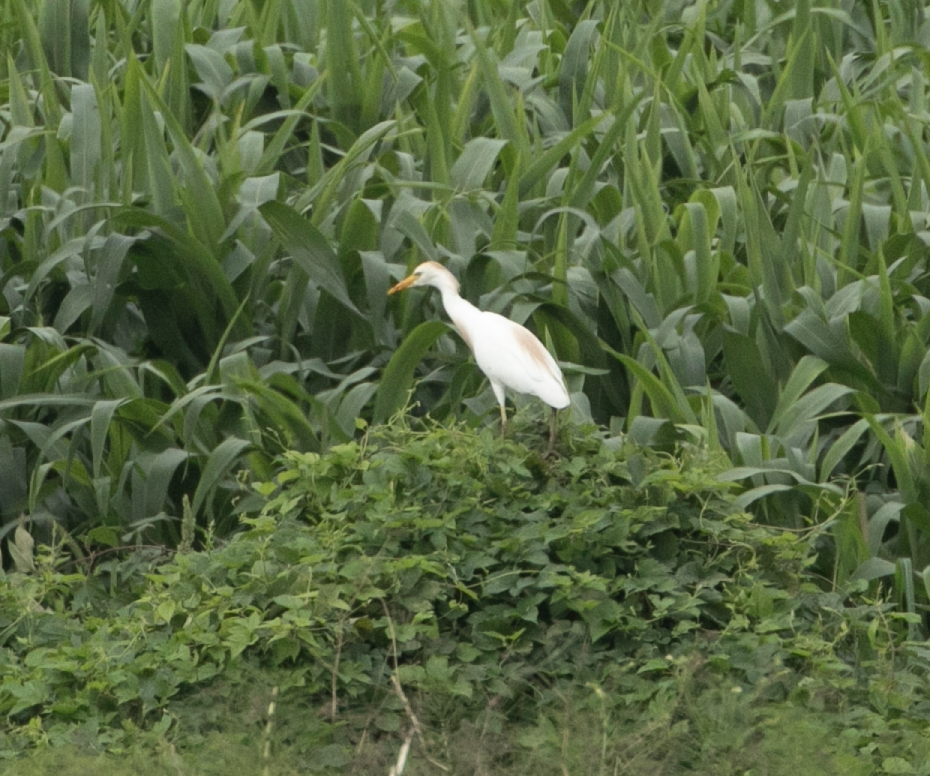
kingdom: Animalia
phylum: Chordata
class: Aves
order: Pelecaniformes
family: Ardeidae
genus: Bubulcus
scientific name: Bubulcus ibis
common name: Cattle egret
